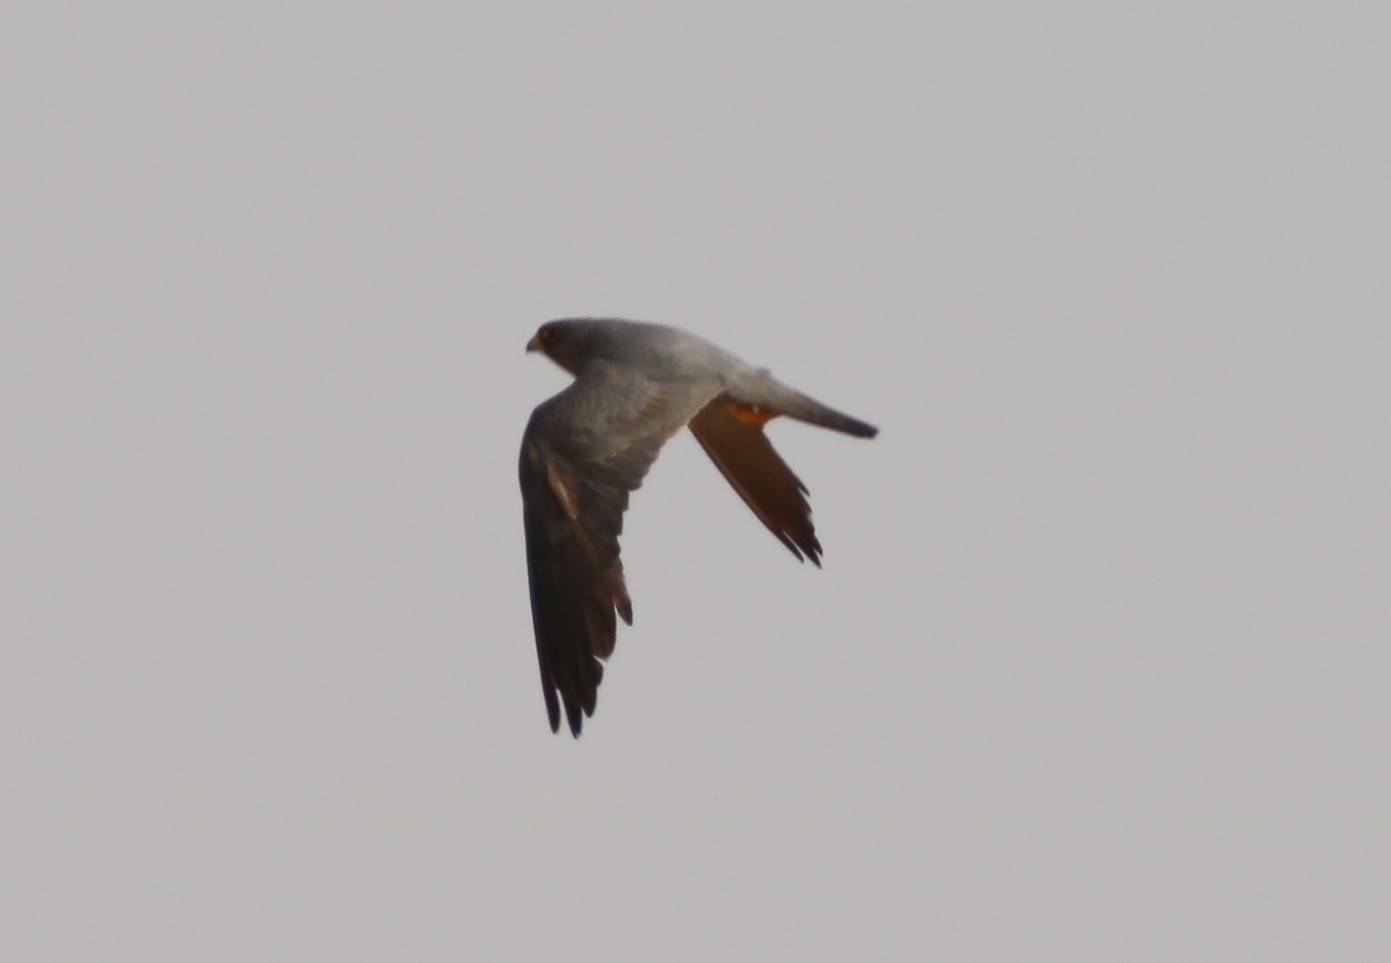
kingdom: Animalia
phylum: Chordata
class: Aves
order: Falconiformes
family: Falconidae
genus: Falco
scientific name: Falco concolor
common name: Sooty falcon
